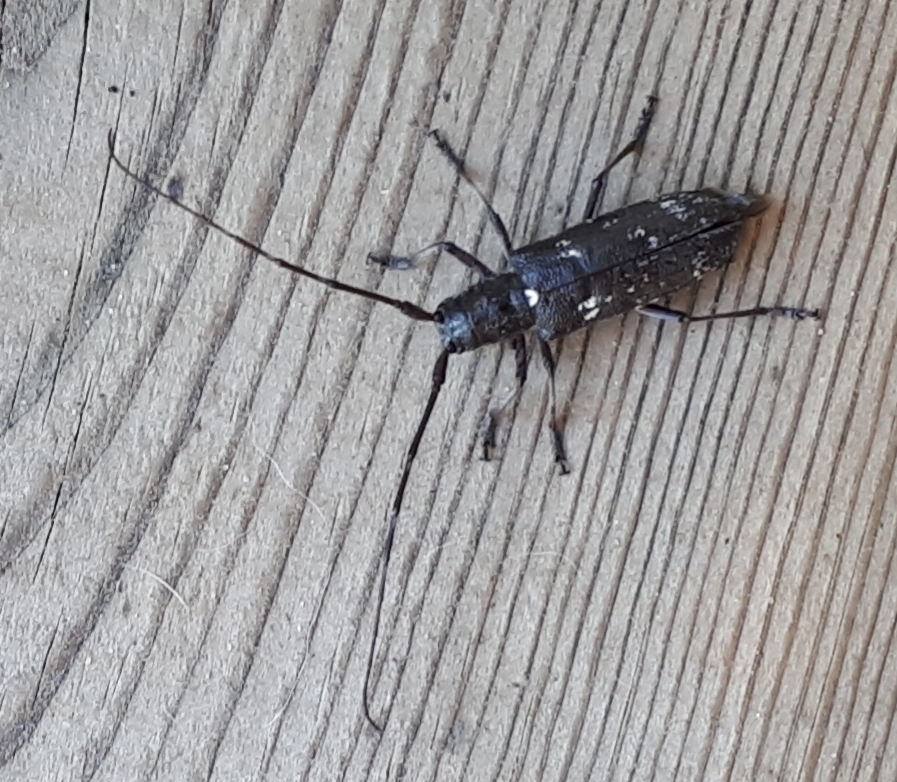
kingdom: Animalia
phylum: Arthropoda
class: Insecta
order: Coleoptera
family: Cerambycidae
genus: Monochamus
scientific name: Monochamus scutellatus
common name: White-spotted sawyer beetle
